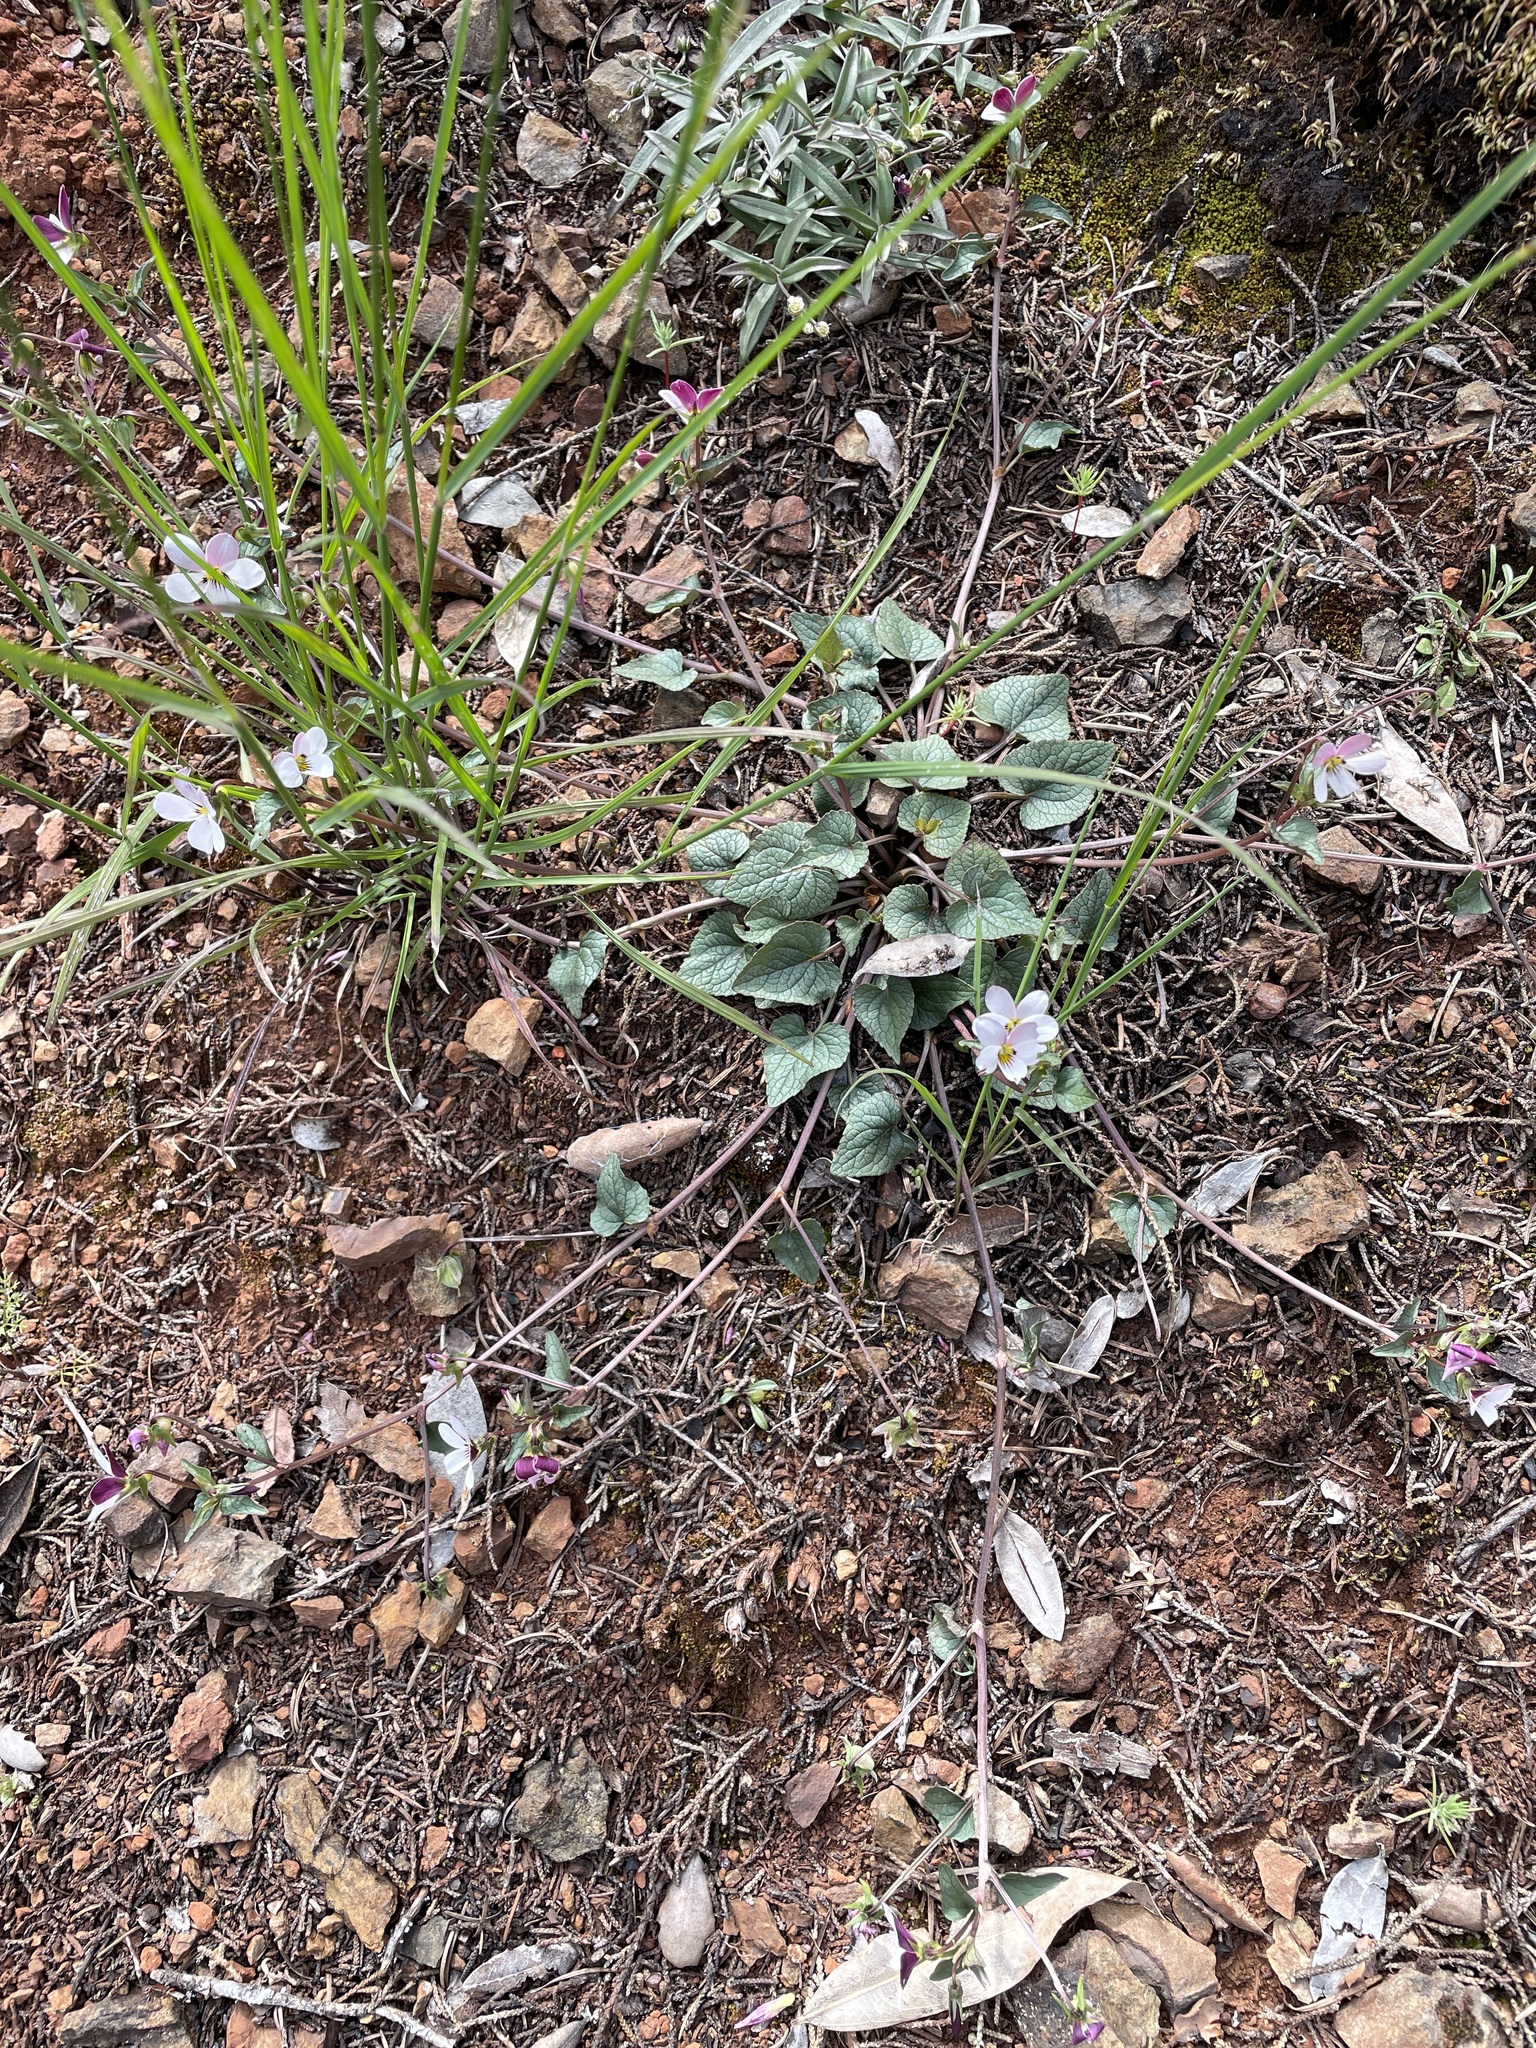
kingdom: Plantae
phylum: Tracheophyta
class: Magnoliopsida
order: Malpighiales
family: Violaceae
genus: Viola
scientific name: Viola ocellata
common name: Western heart's ease
